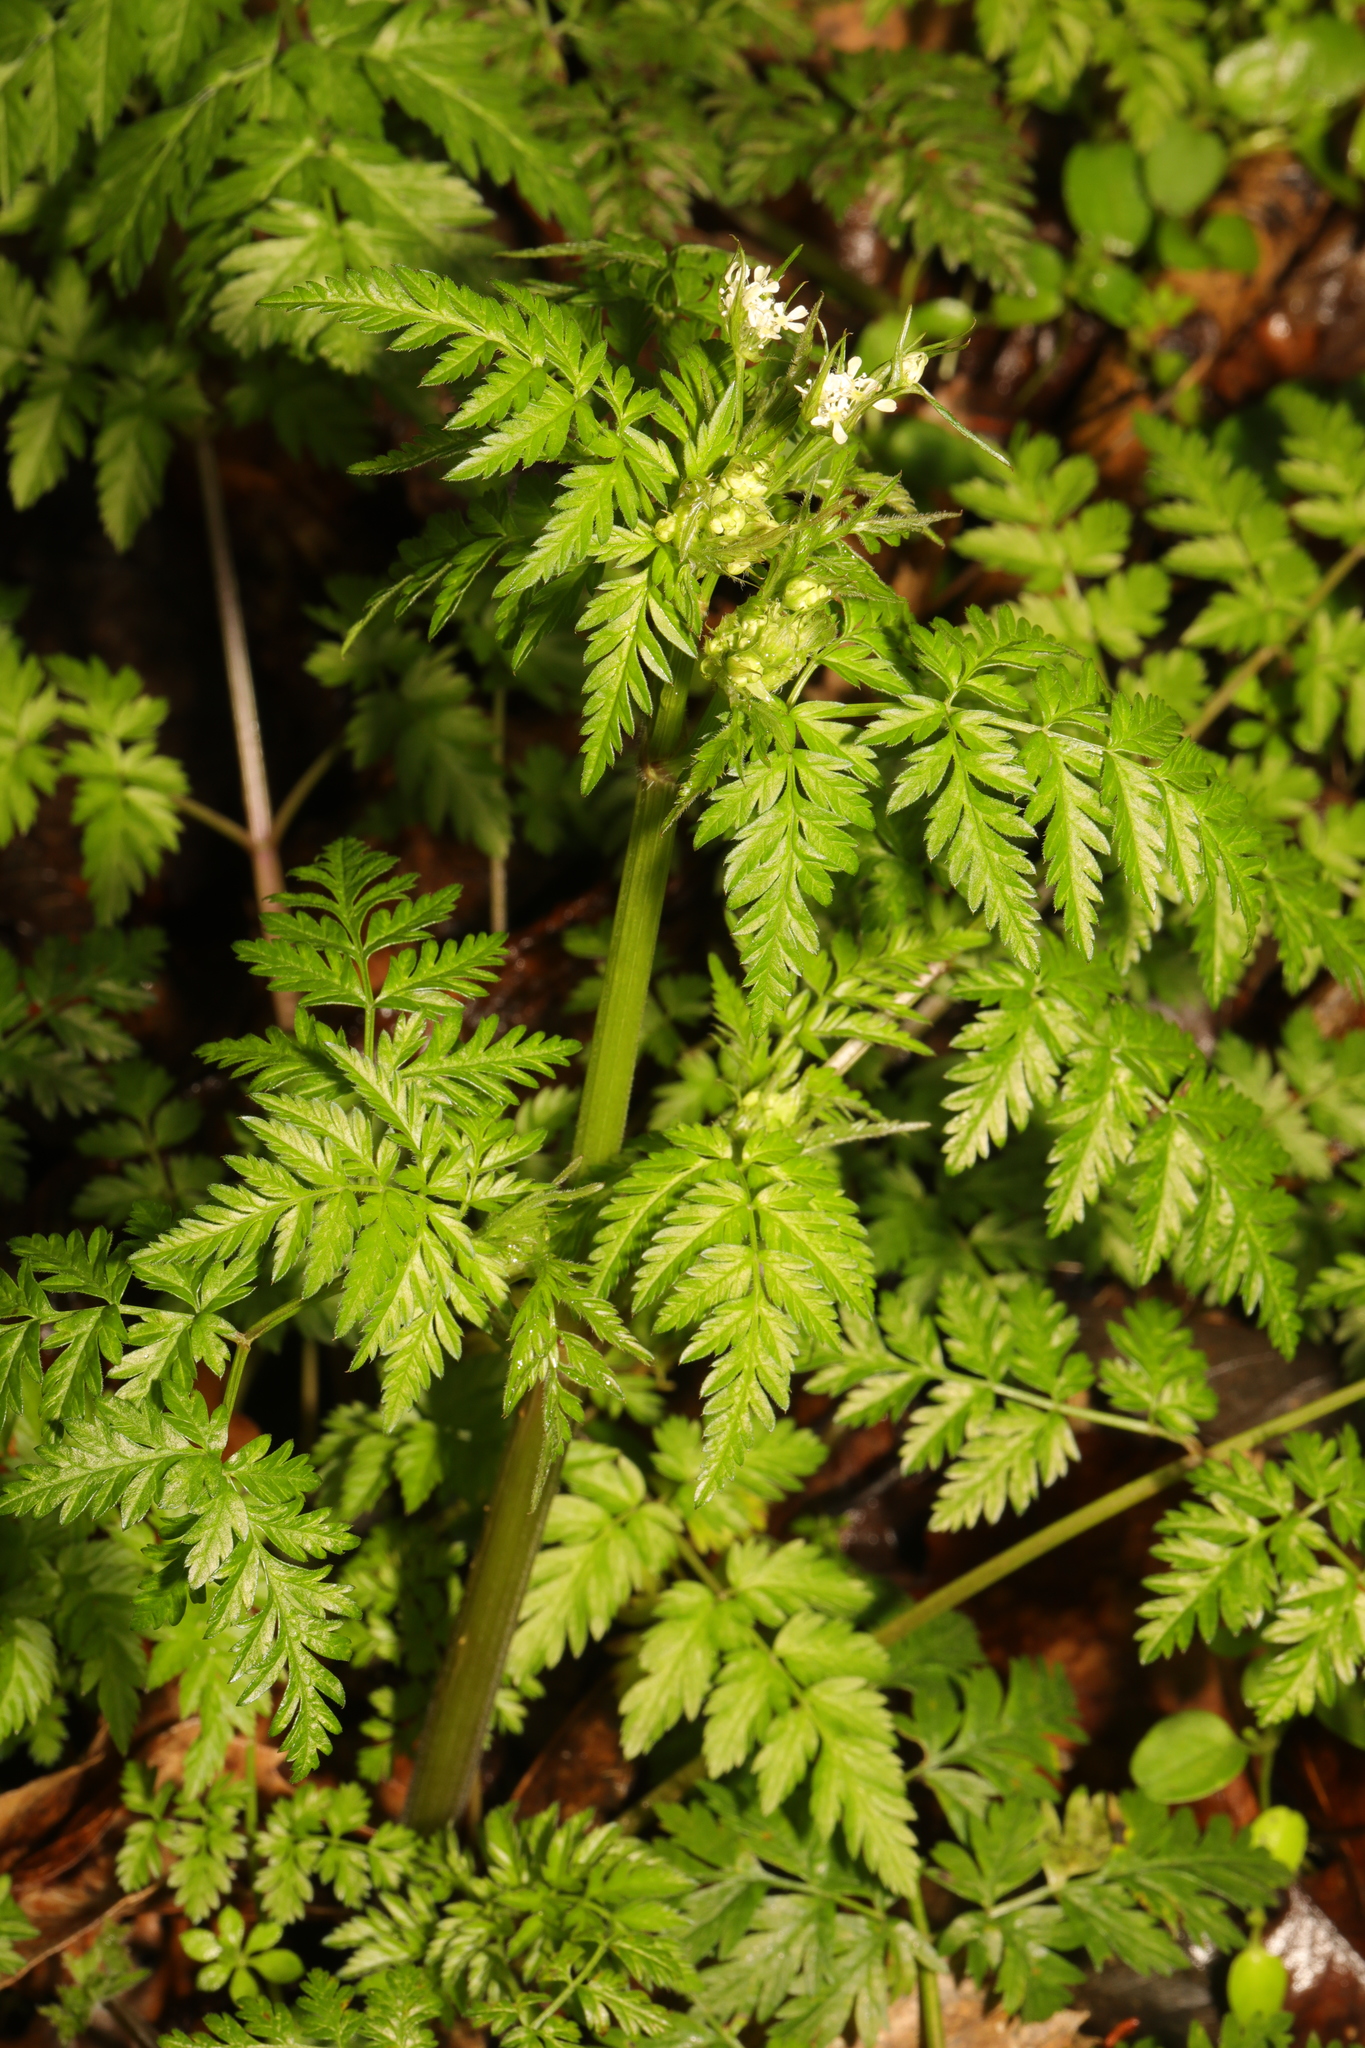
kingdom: Plantae
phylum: Tracheophyta
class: Magnoliopsida
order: Apiales
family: Apiaceae
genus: Anthriscus
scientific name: Anthriscus sylvestris
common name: Cow parsley
